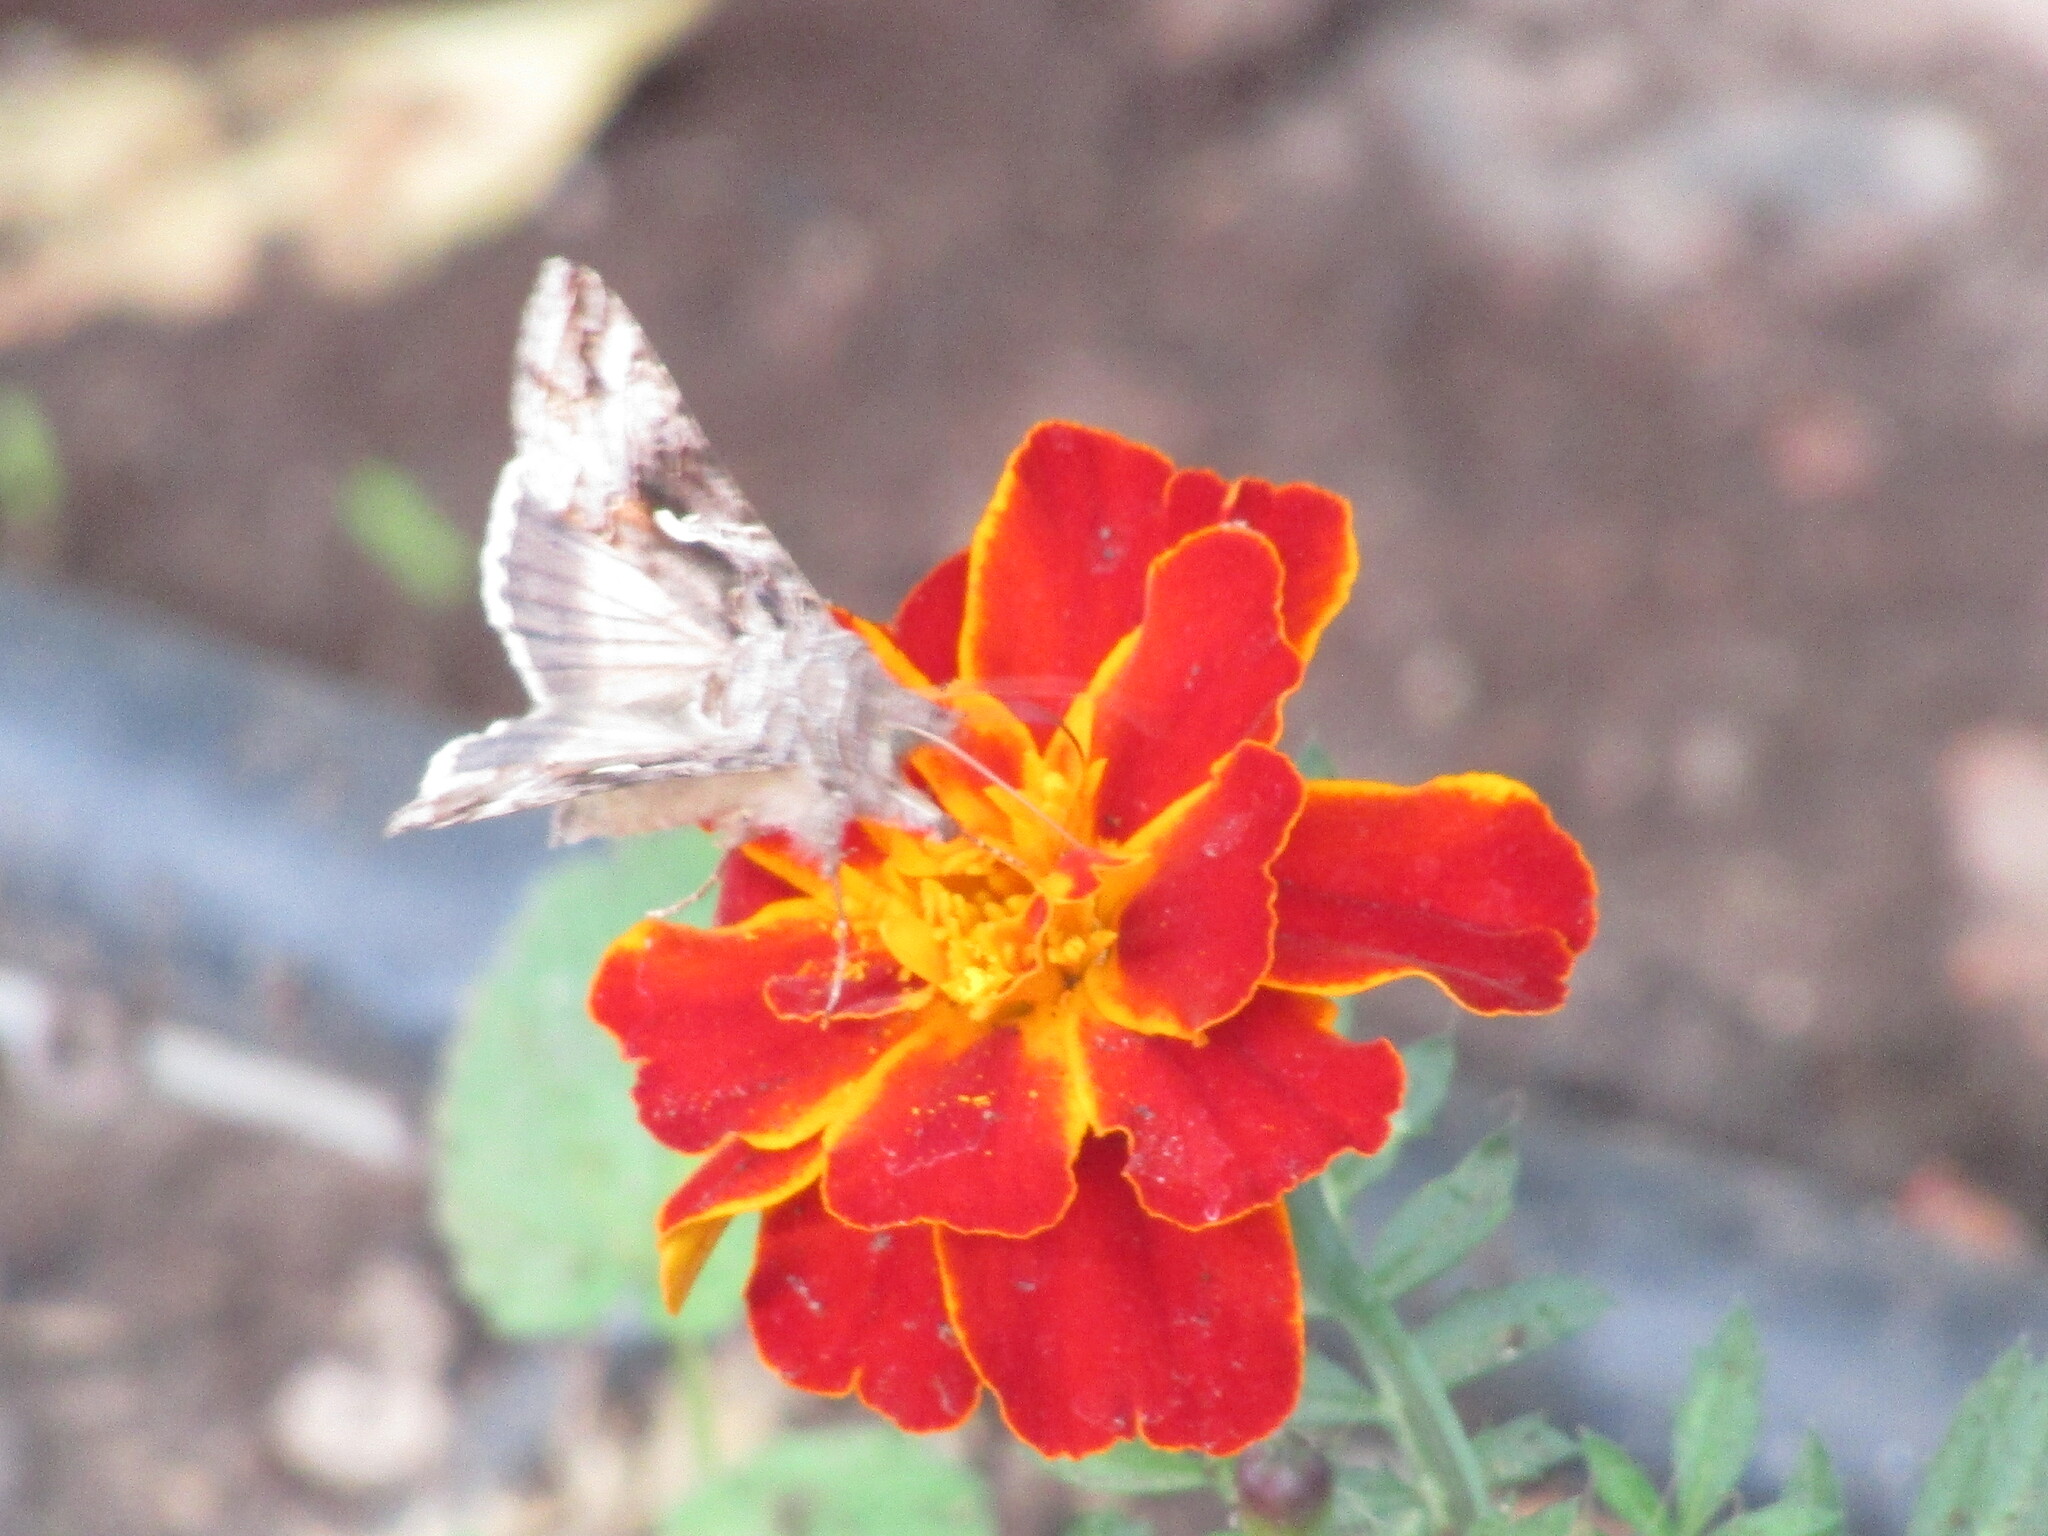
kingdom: Animalia
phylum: Arthropoda
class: Insecta
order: Lepidoptera
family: Noctuidae
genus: Autographa
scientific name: Autographa gamma
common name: Silver y
